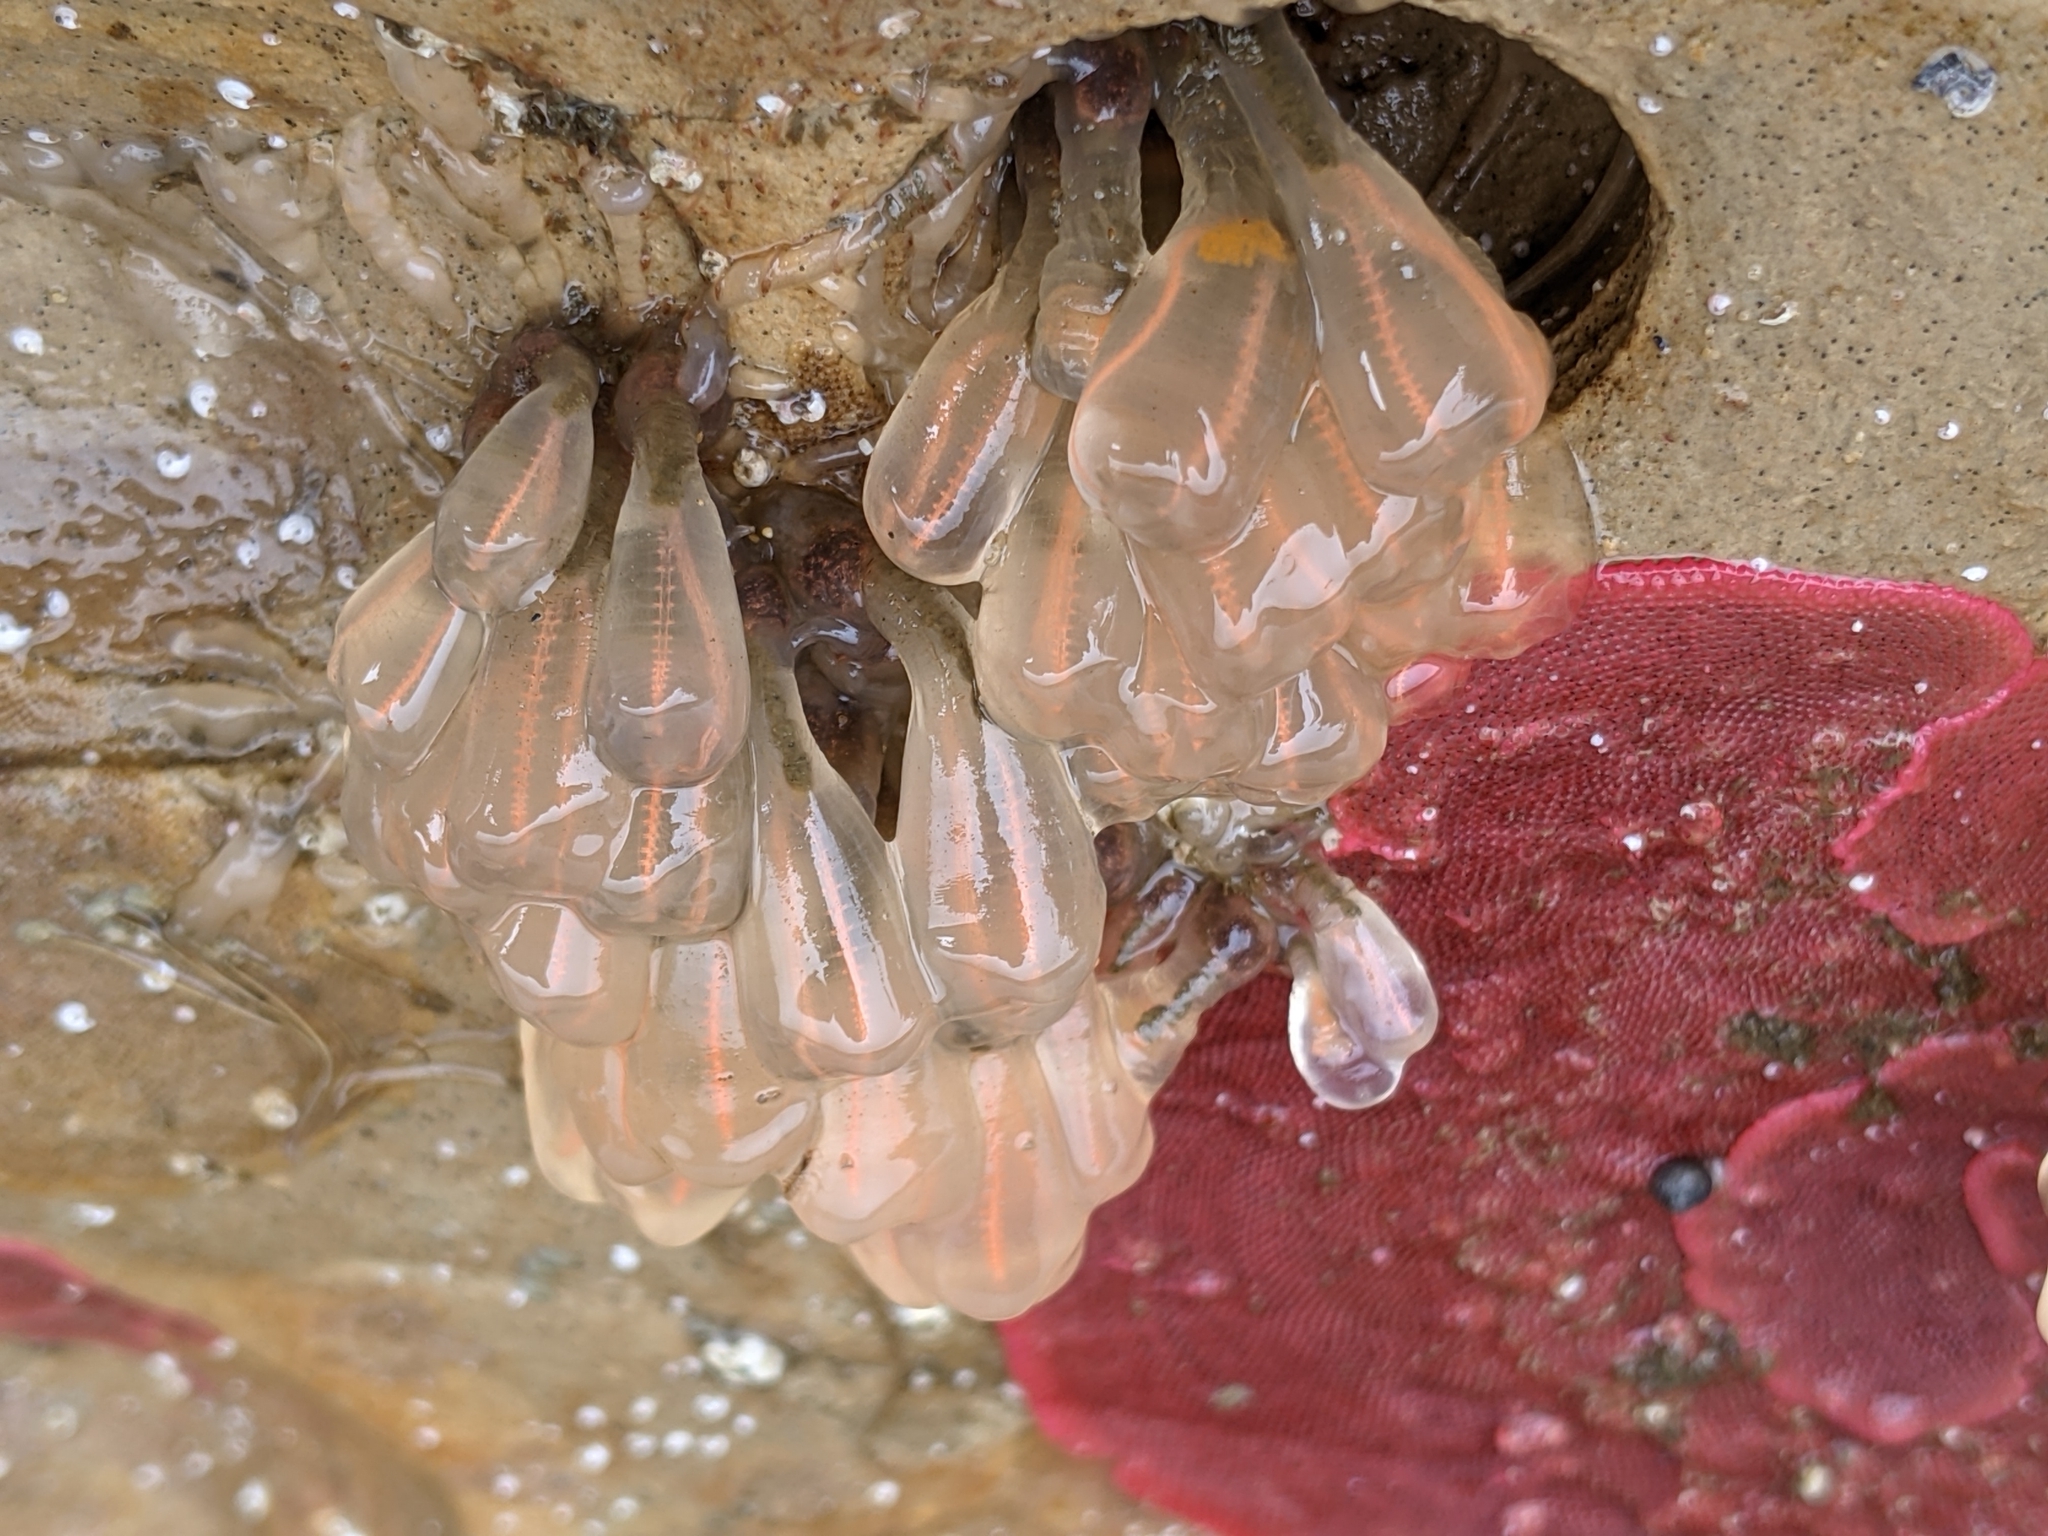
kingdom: Animalia
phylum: Chordata
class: Ascidiacea
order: Aplousobranchia
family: Clavelinidae
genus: Clavelina
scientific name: Clavelina huntsmani
